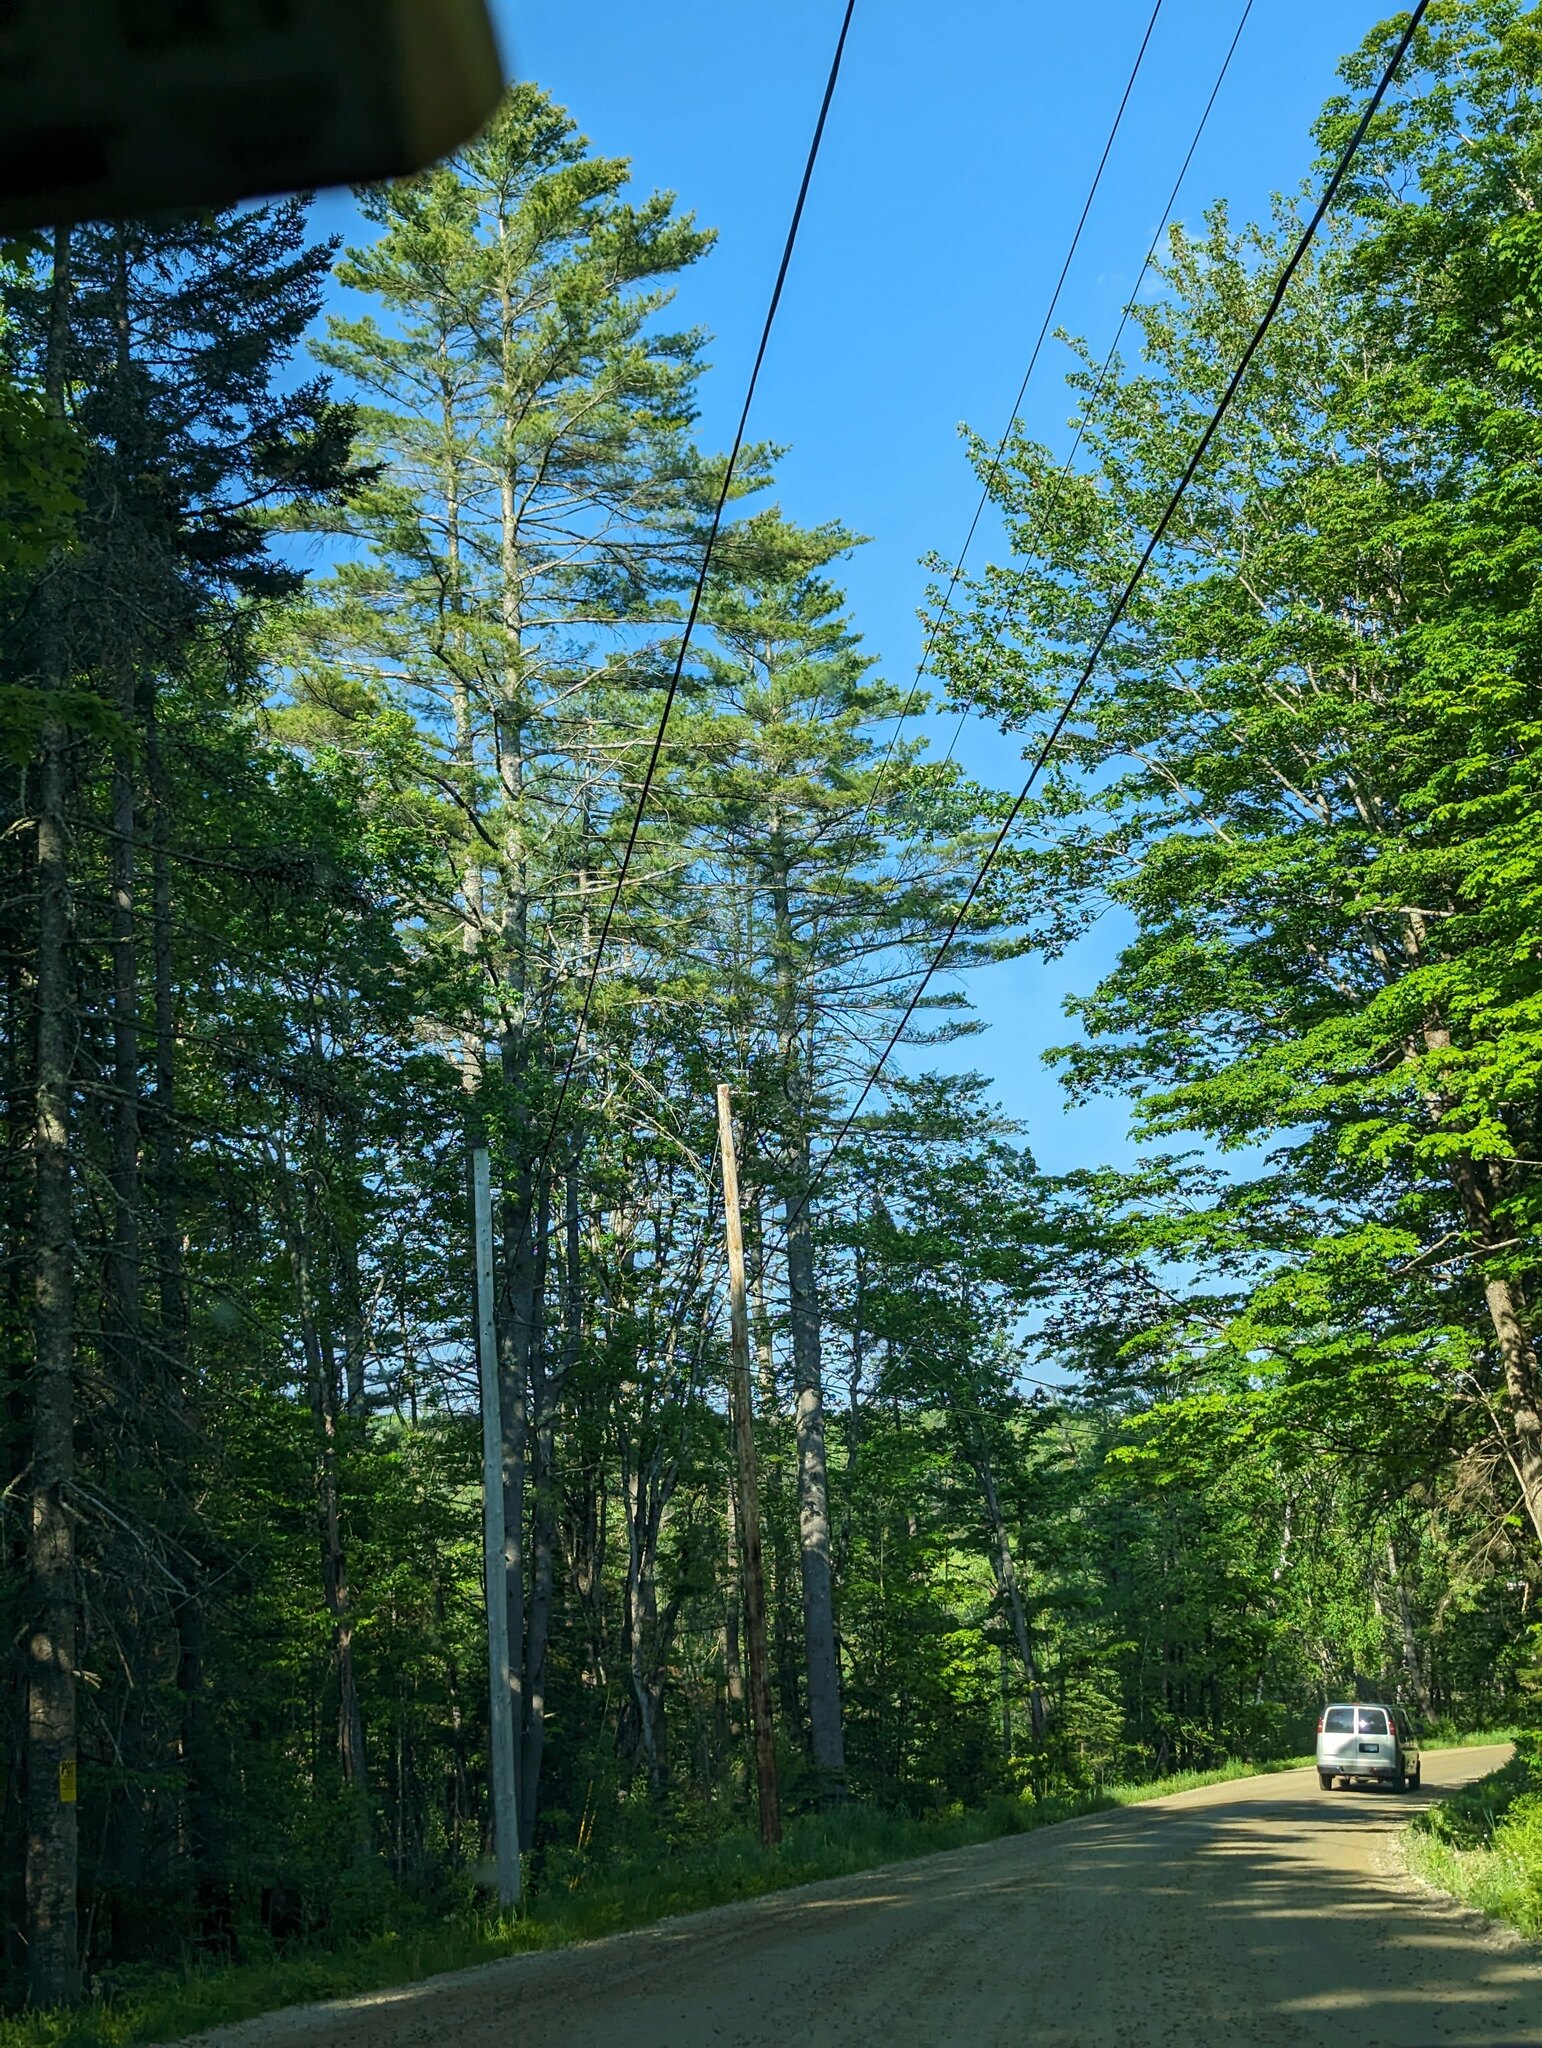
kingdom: Plantae
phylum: Tracheophyta
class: Pinopsida
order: Pinales
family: Pinaceae
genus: Pinus
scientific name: Pinus strobus
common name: Weymouth pine
